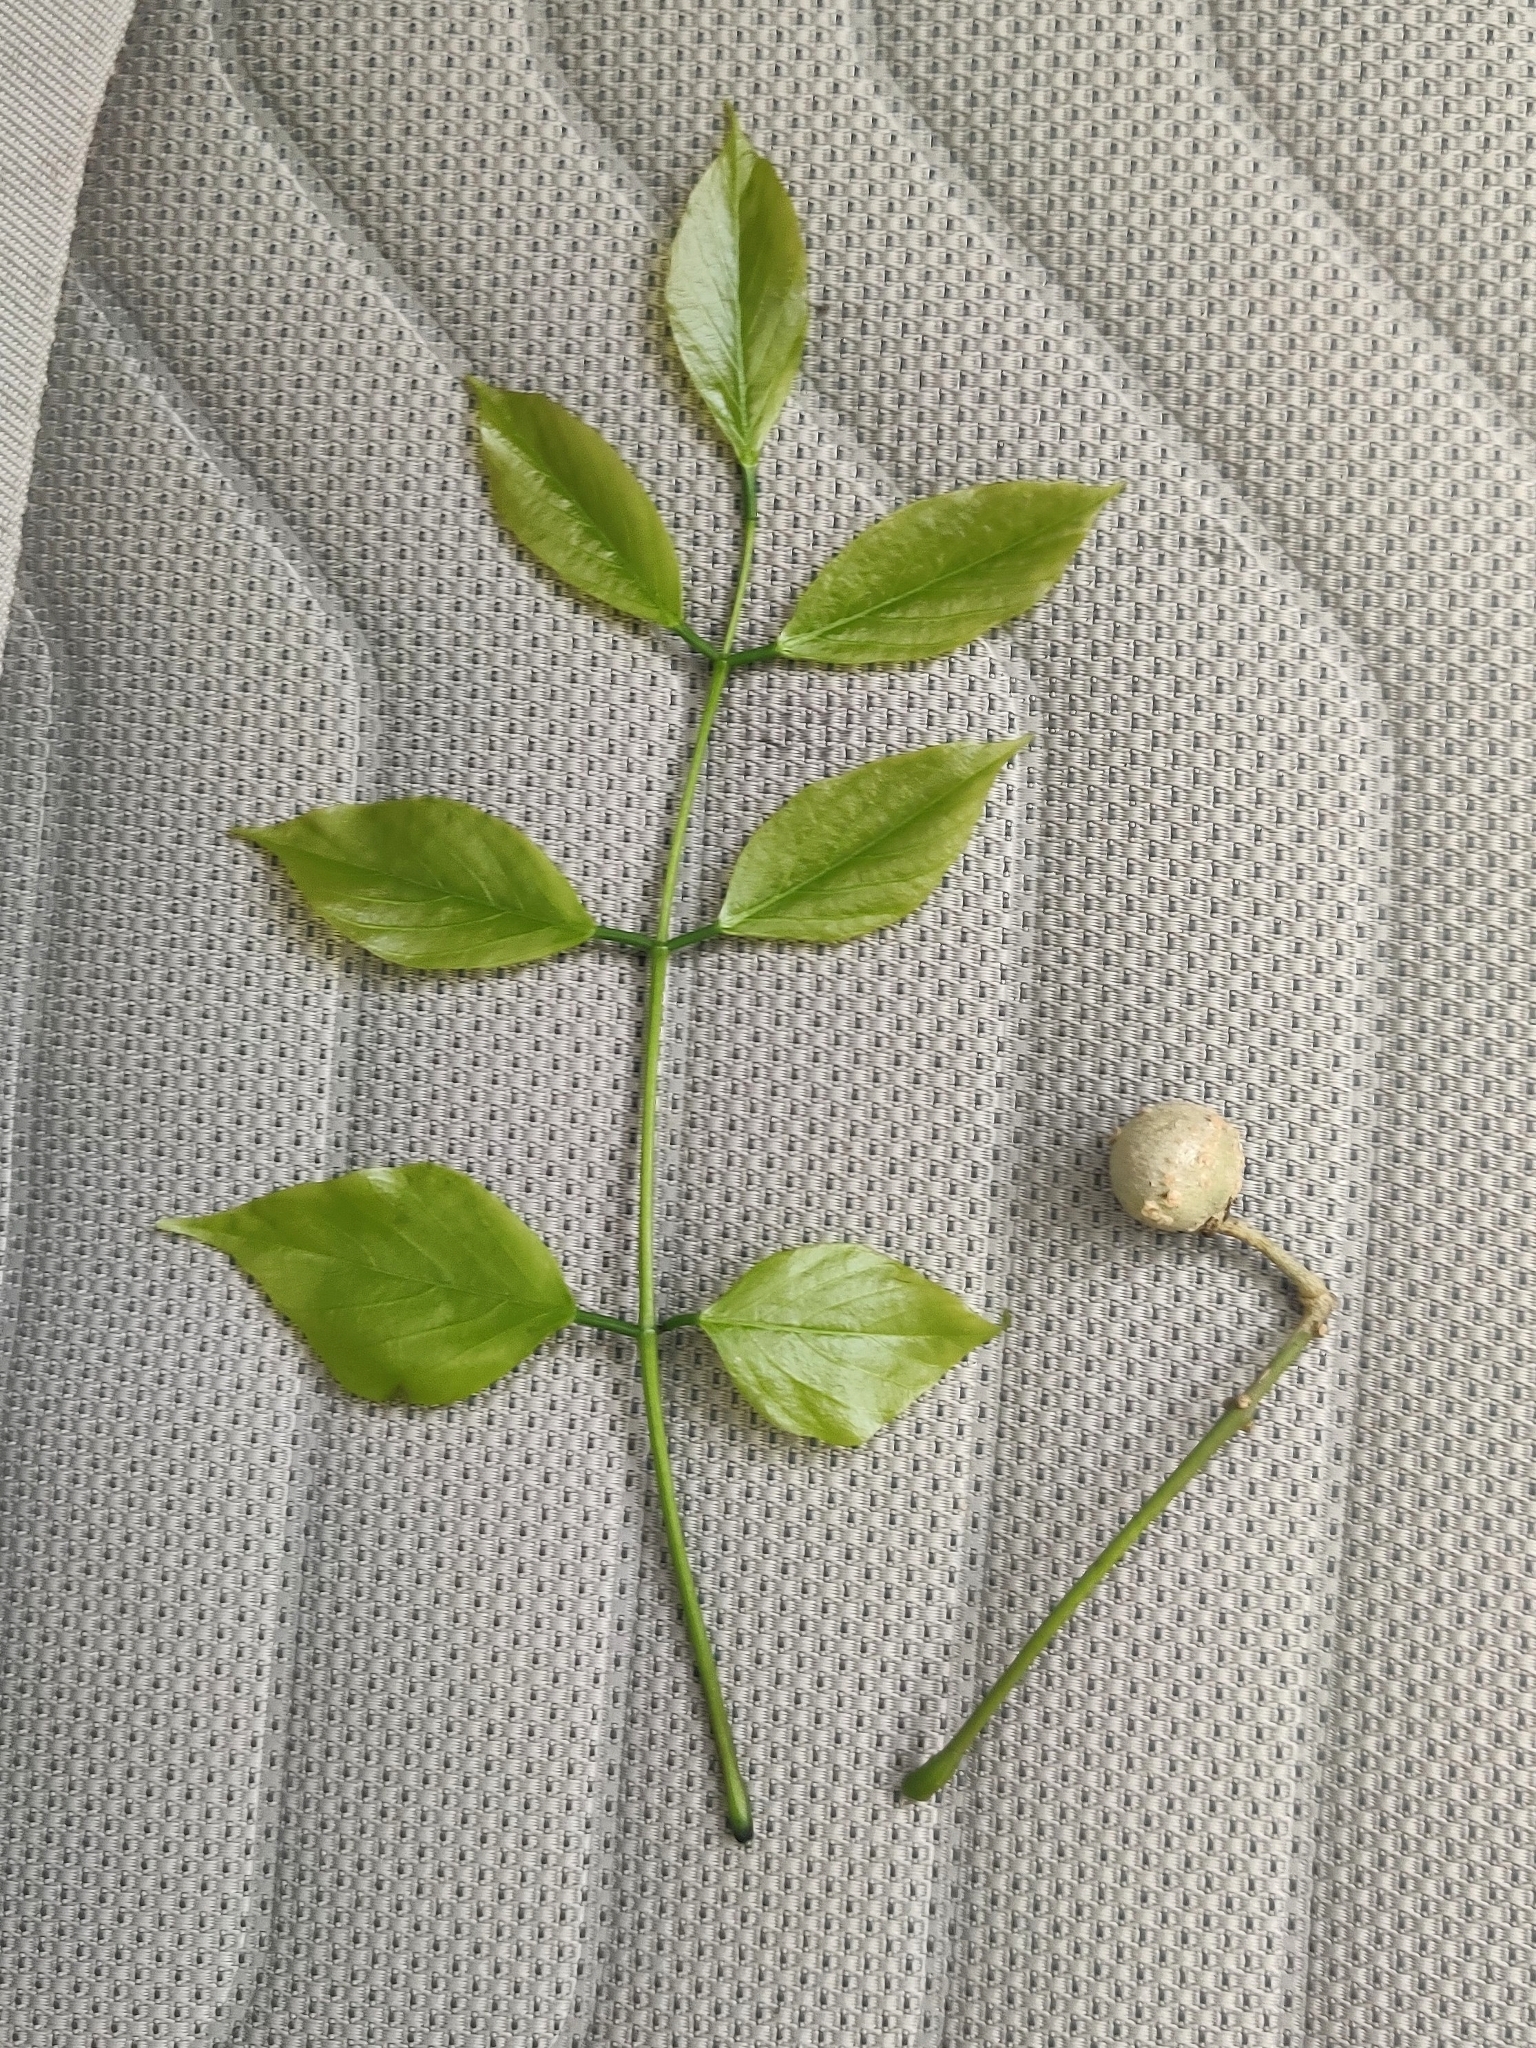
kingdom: Plantae
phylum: Tracheophyta
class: Magnoliopsida
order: Fabales
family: Fabaceae
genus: Pongamia
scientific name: Pongamia pinnata
